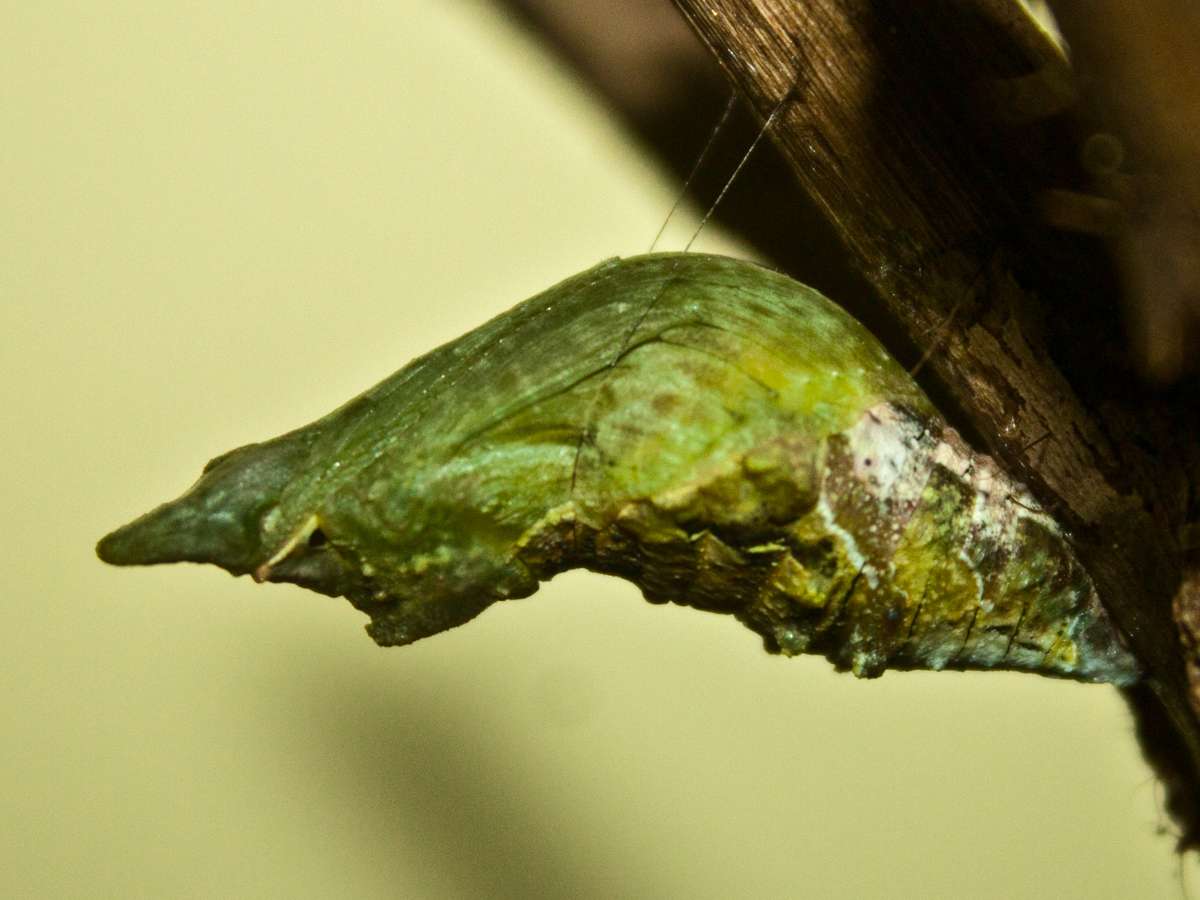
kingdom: Animalia
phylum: Arthropoda
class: Insecta
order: Lepidoptera
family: Papilionidae
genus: Papilio
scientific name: Papilio polytes
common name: Common mormon
